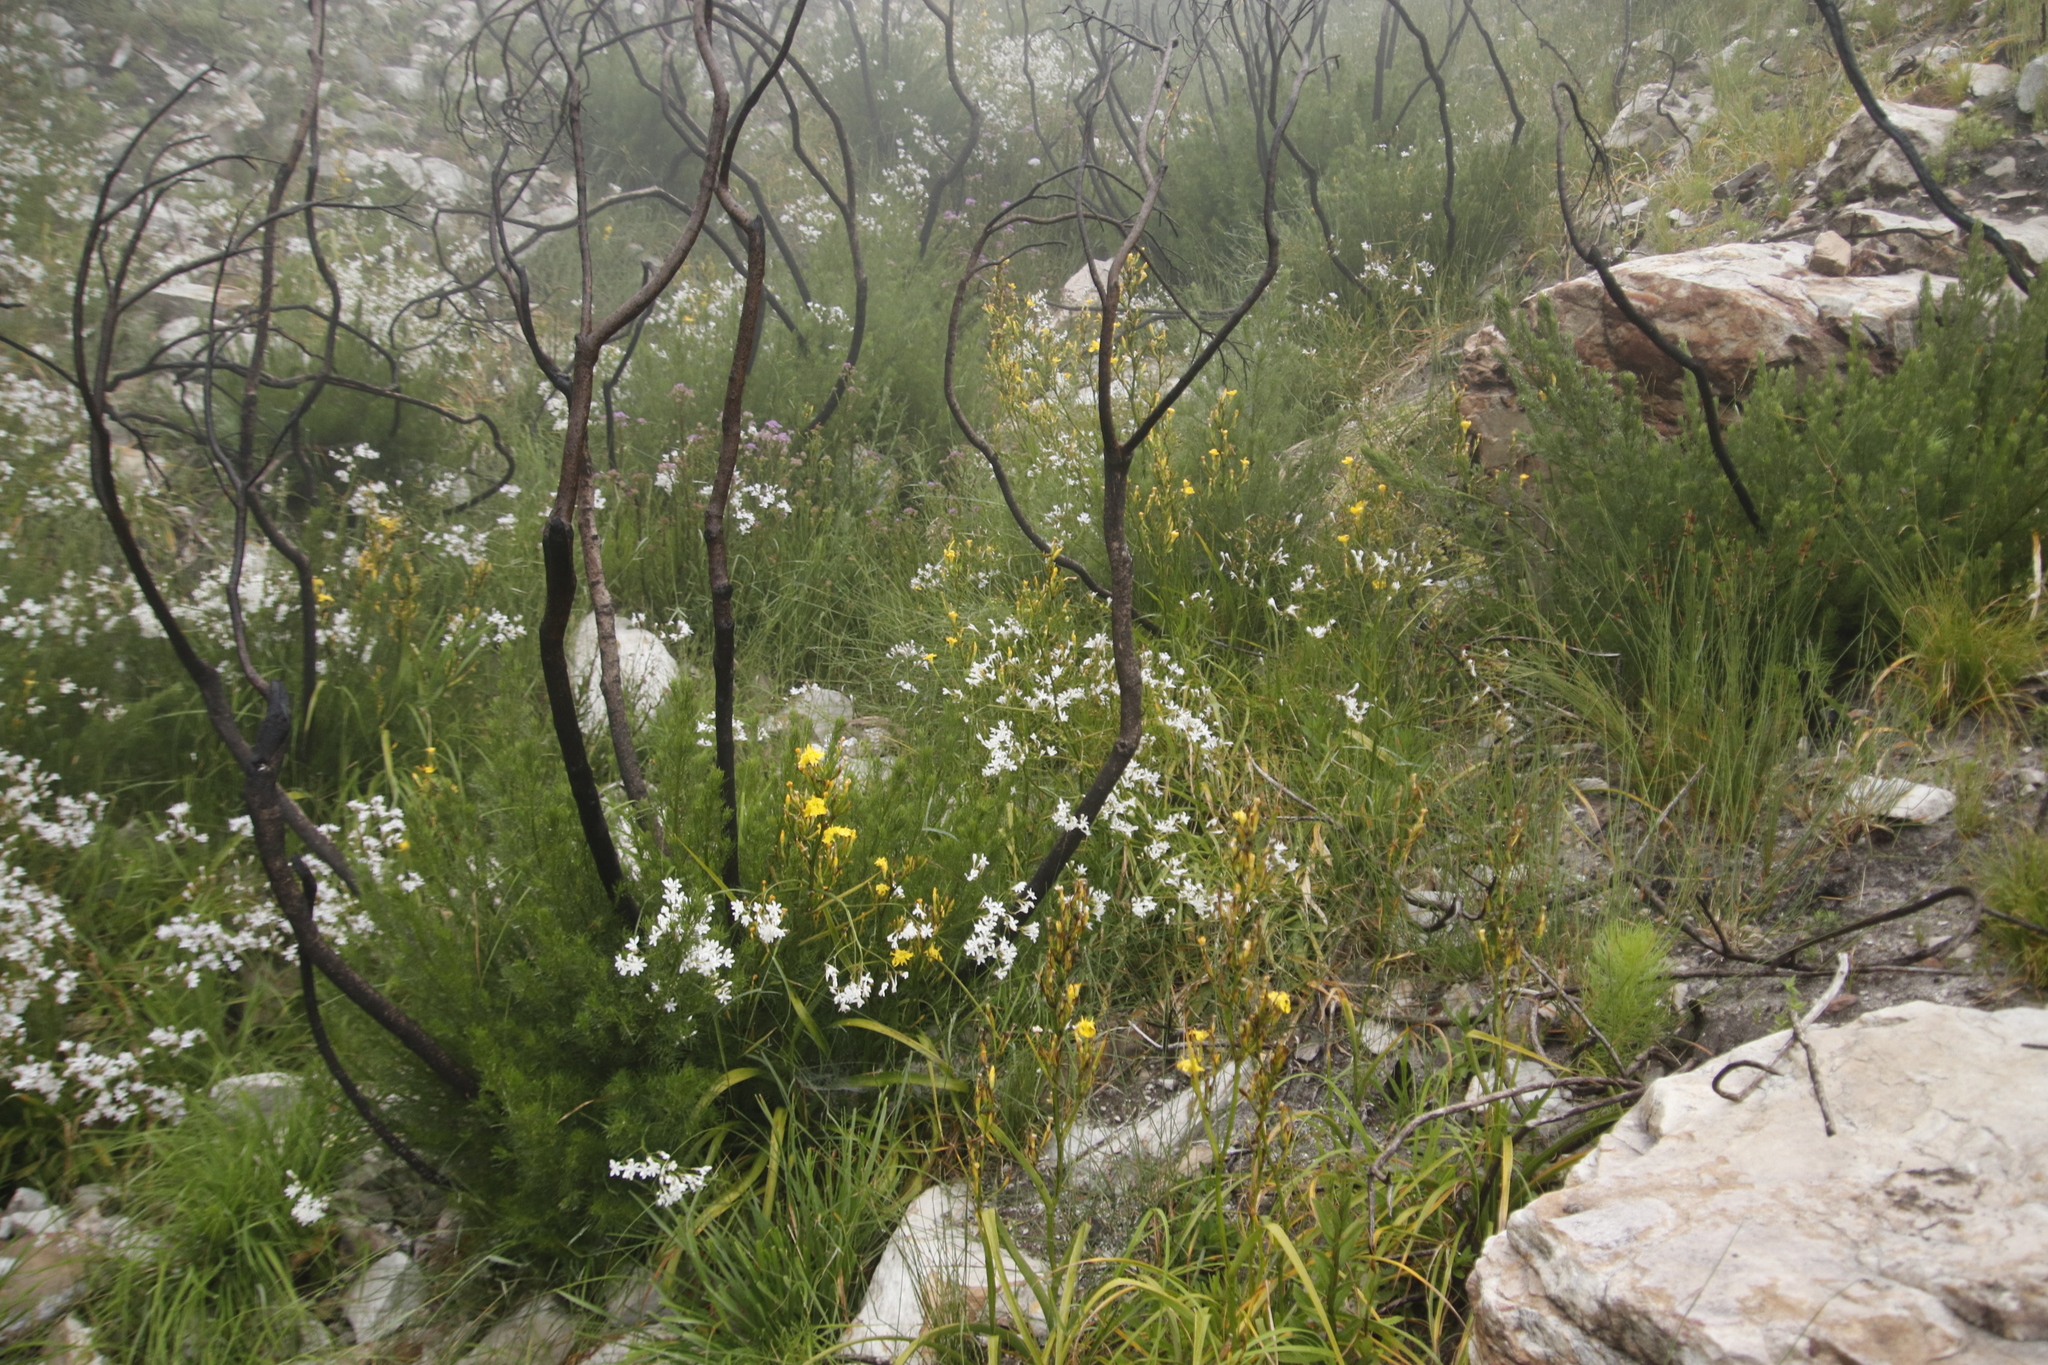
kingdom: Plantae
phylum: Tracheophyta
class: Liliopsida
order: Asparagales
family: Iridaceae
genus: Schizorhiza
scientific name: Schizorhiza neglecta
